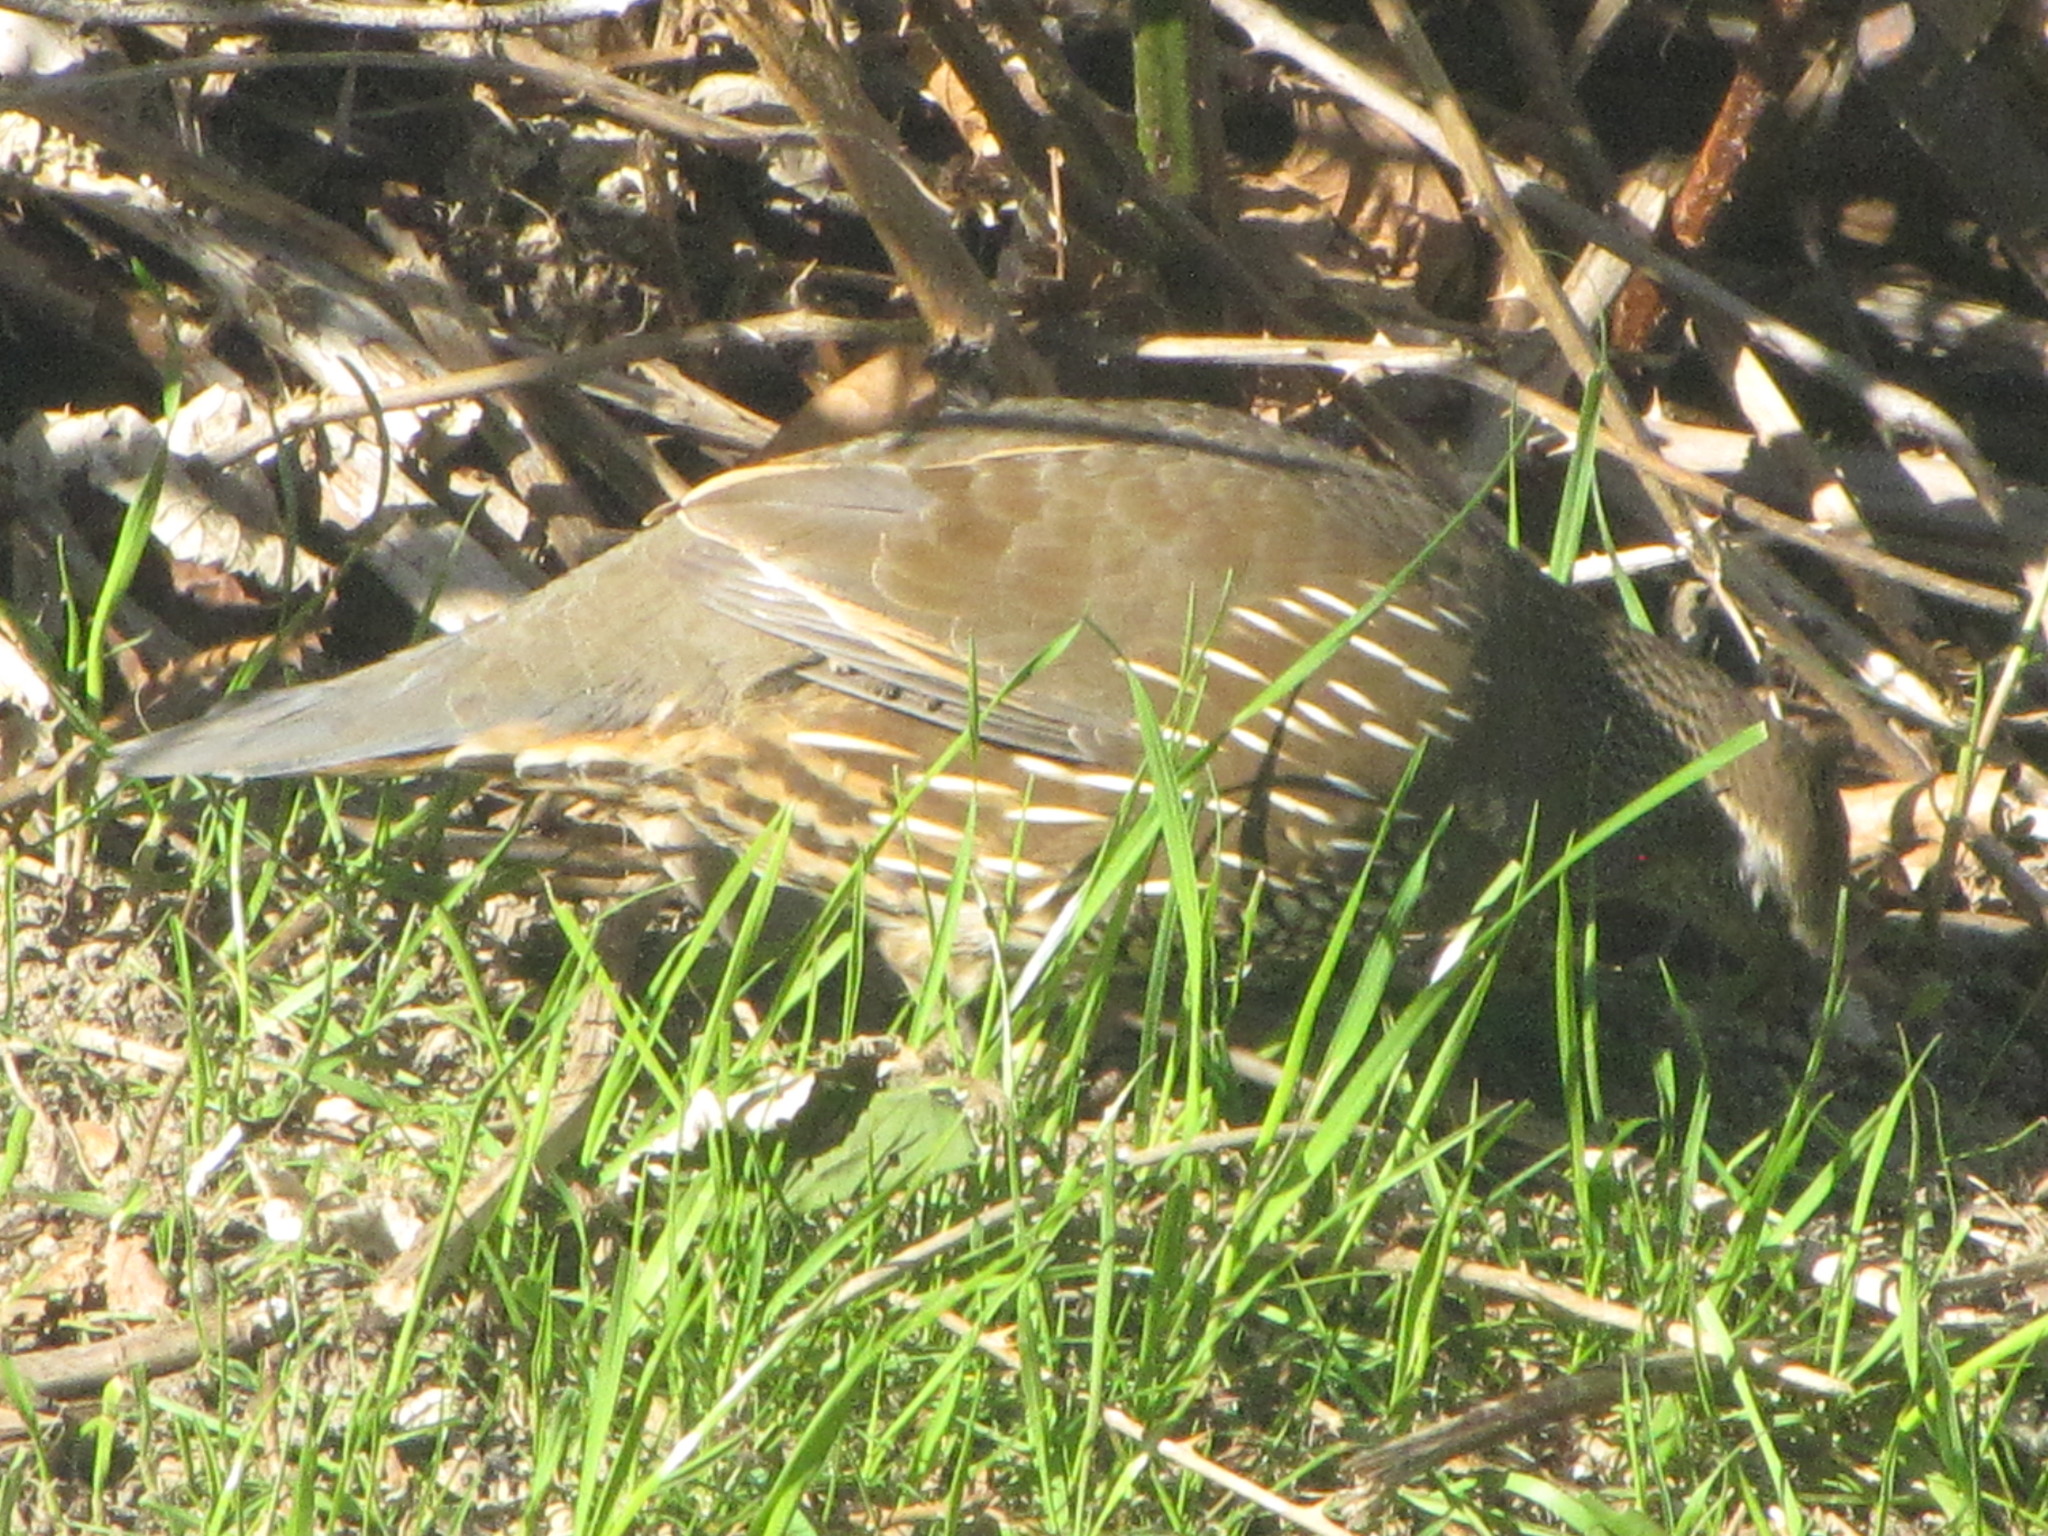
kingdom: Animalia
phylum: Chordata
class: Aves
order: Galliformes
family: Odontophoridae
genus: Callipepla
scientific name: Callipepla californica
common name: California quail
